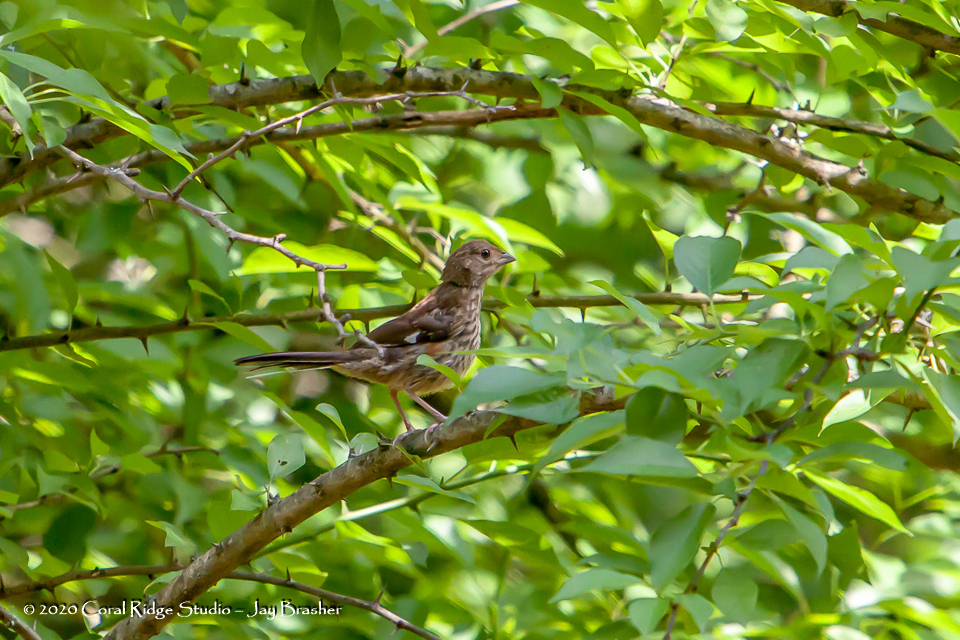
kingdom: Animalia
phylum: Chordata
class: Aves
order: Passeriformes
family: Passerellidae
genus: Pipilo
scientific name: Pipilo erythrophthalmus
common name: Eastern towhee
